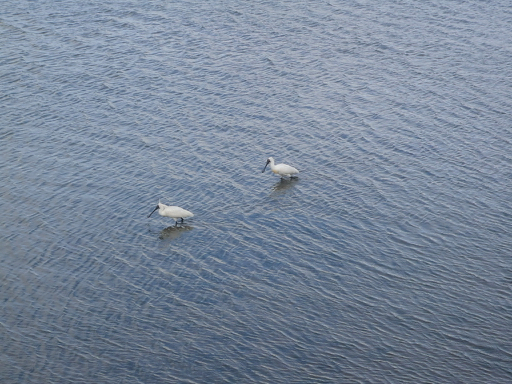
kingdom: Animalia
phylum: Chordata
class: Aves
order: Pelecaniformes
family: Threskiornithidae
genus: Platalea
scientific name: Platalea regia
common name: Royal spoonbill
